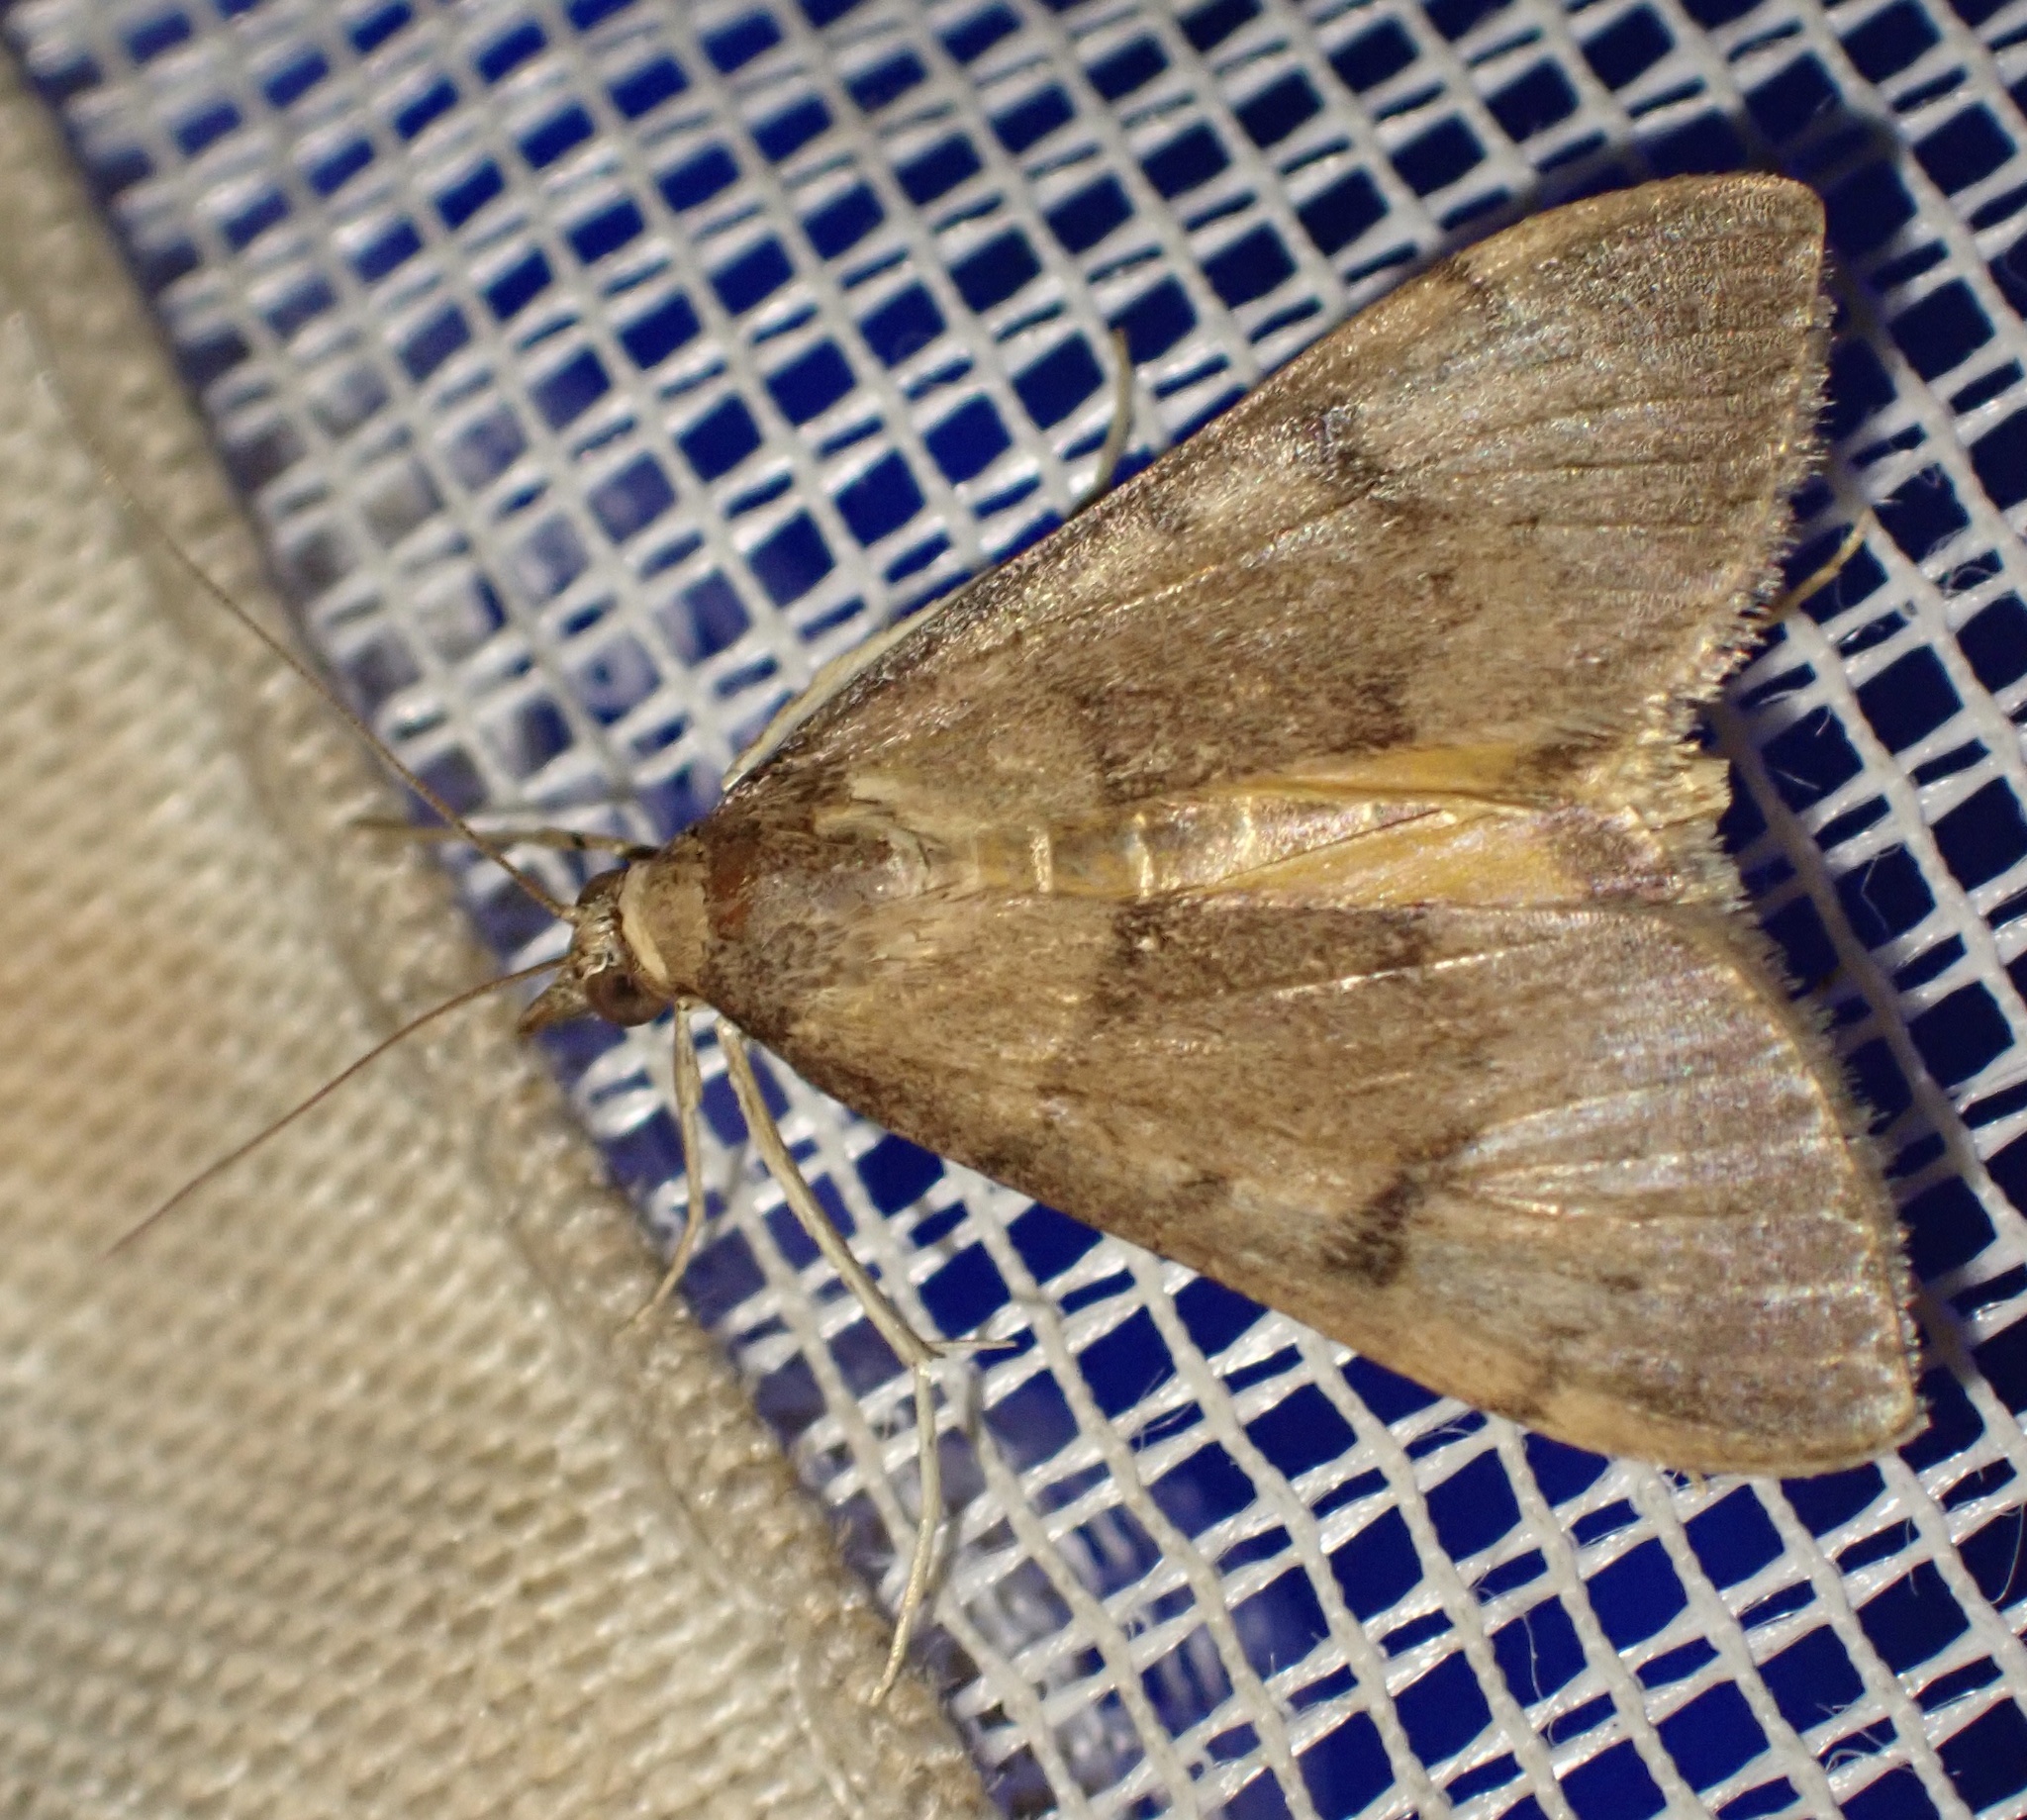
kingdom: Animalia
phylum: Arthropoda
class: Insecta
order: Lepidoptera
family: Crambidae
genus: Uresiphita
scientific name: Uresiphita gilvata
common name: Yellow-underwing pearl
